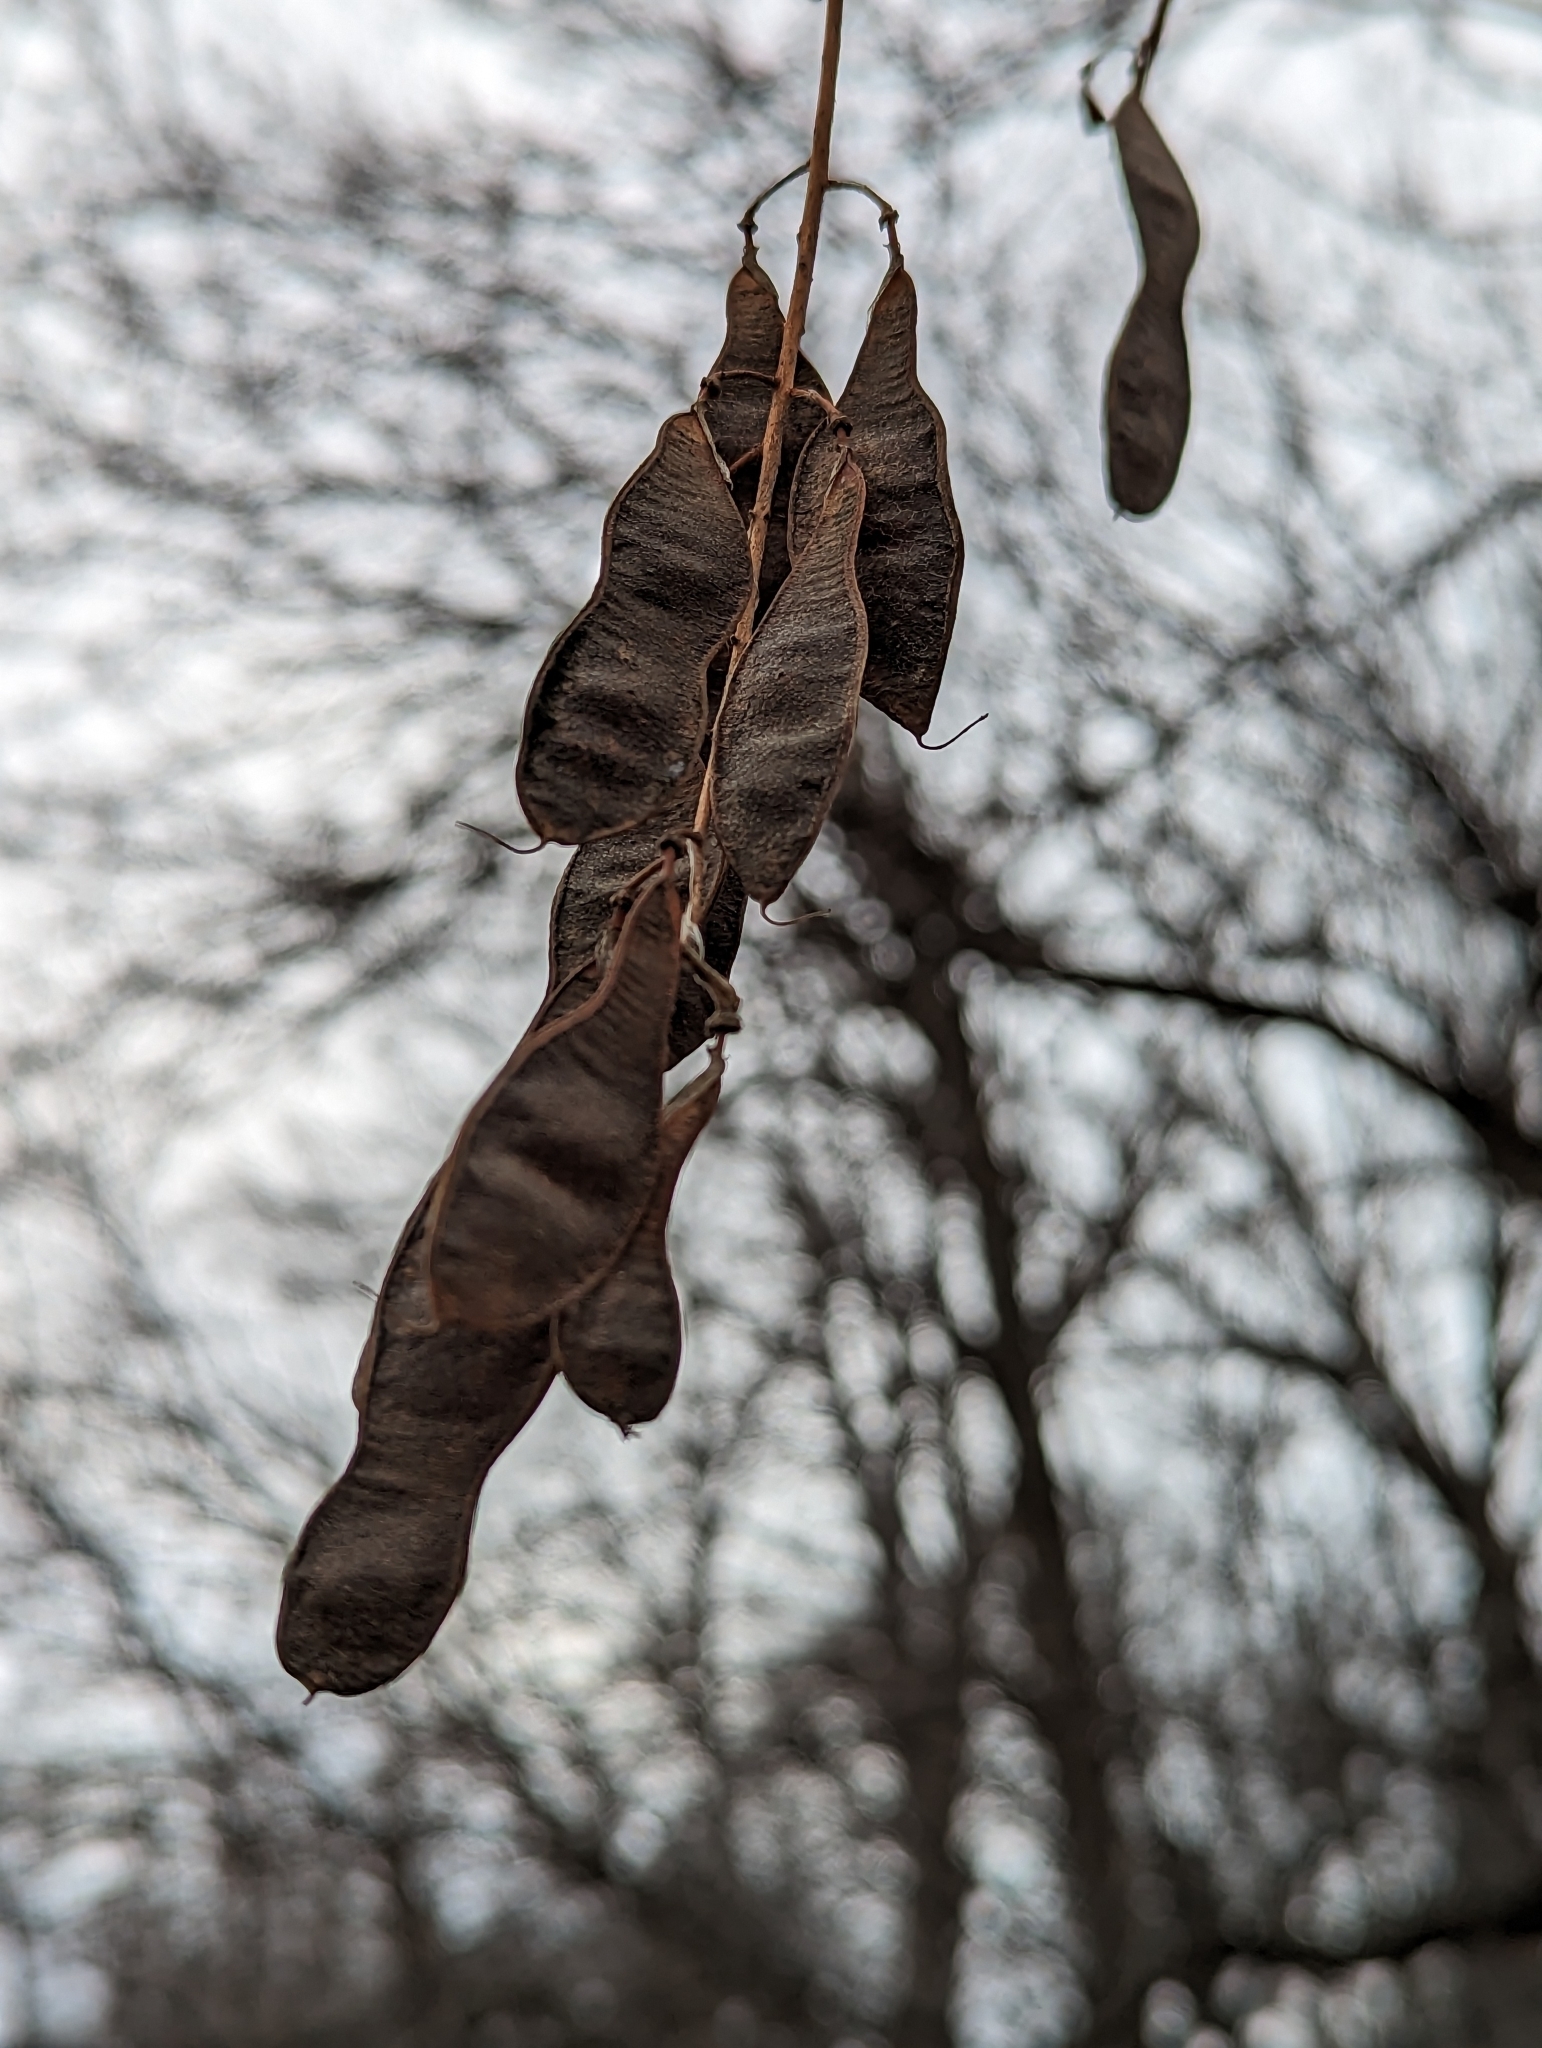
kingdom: Plantae
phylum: Tracheophyta
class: Magnoliopsida
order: Fabales
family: Fabaceae
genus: Robinia
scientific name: Robinia pseudoacacia
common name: Black locust
